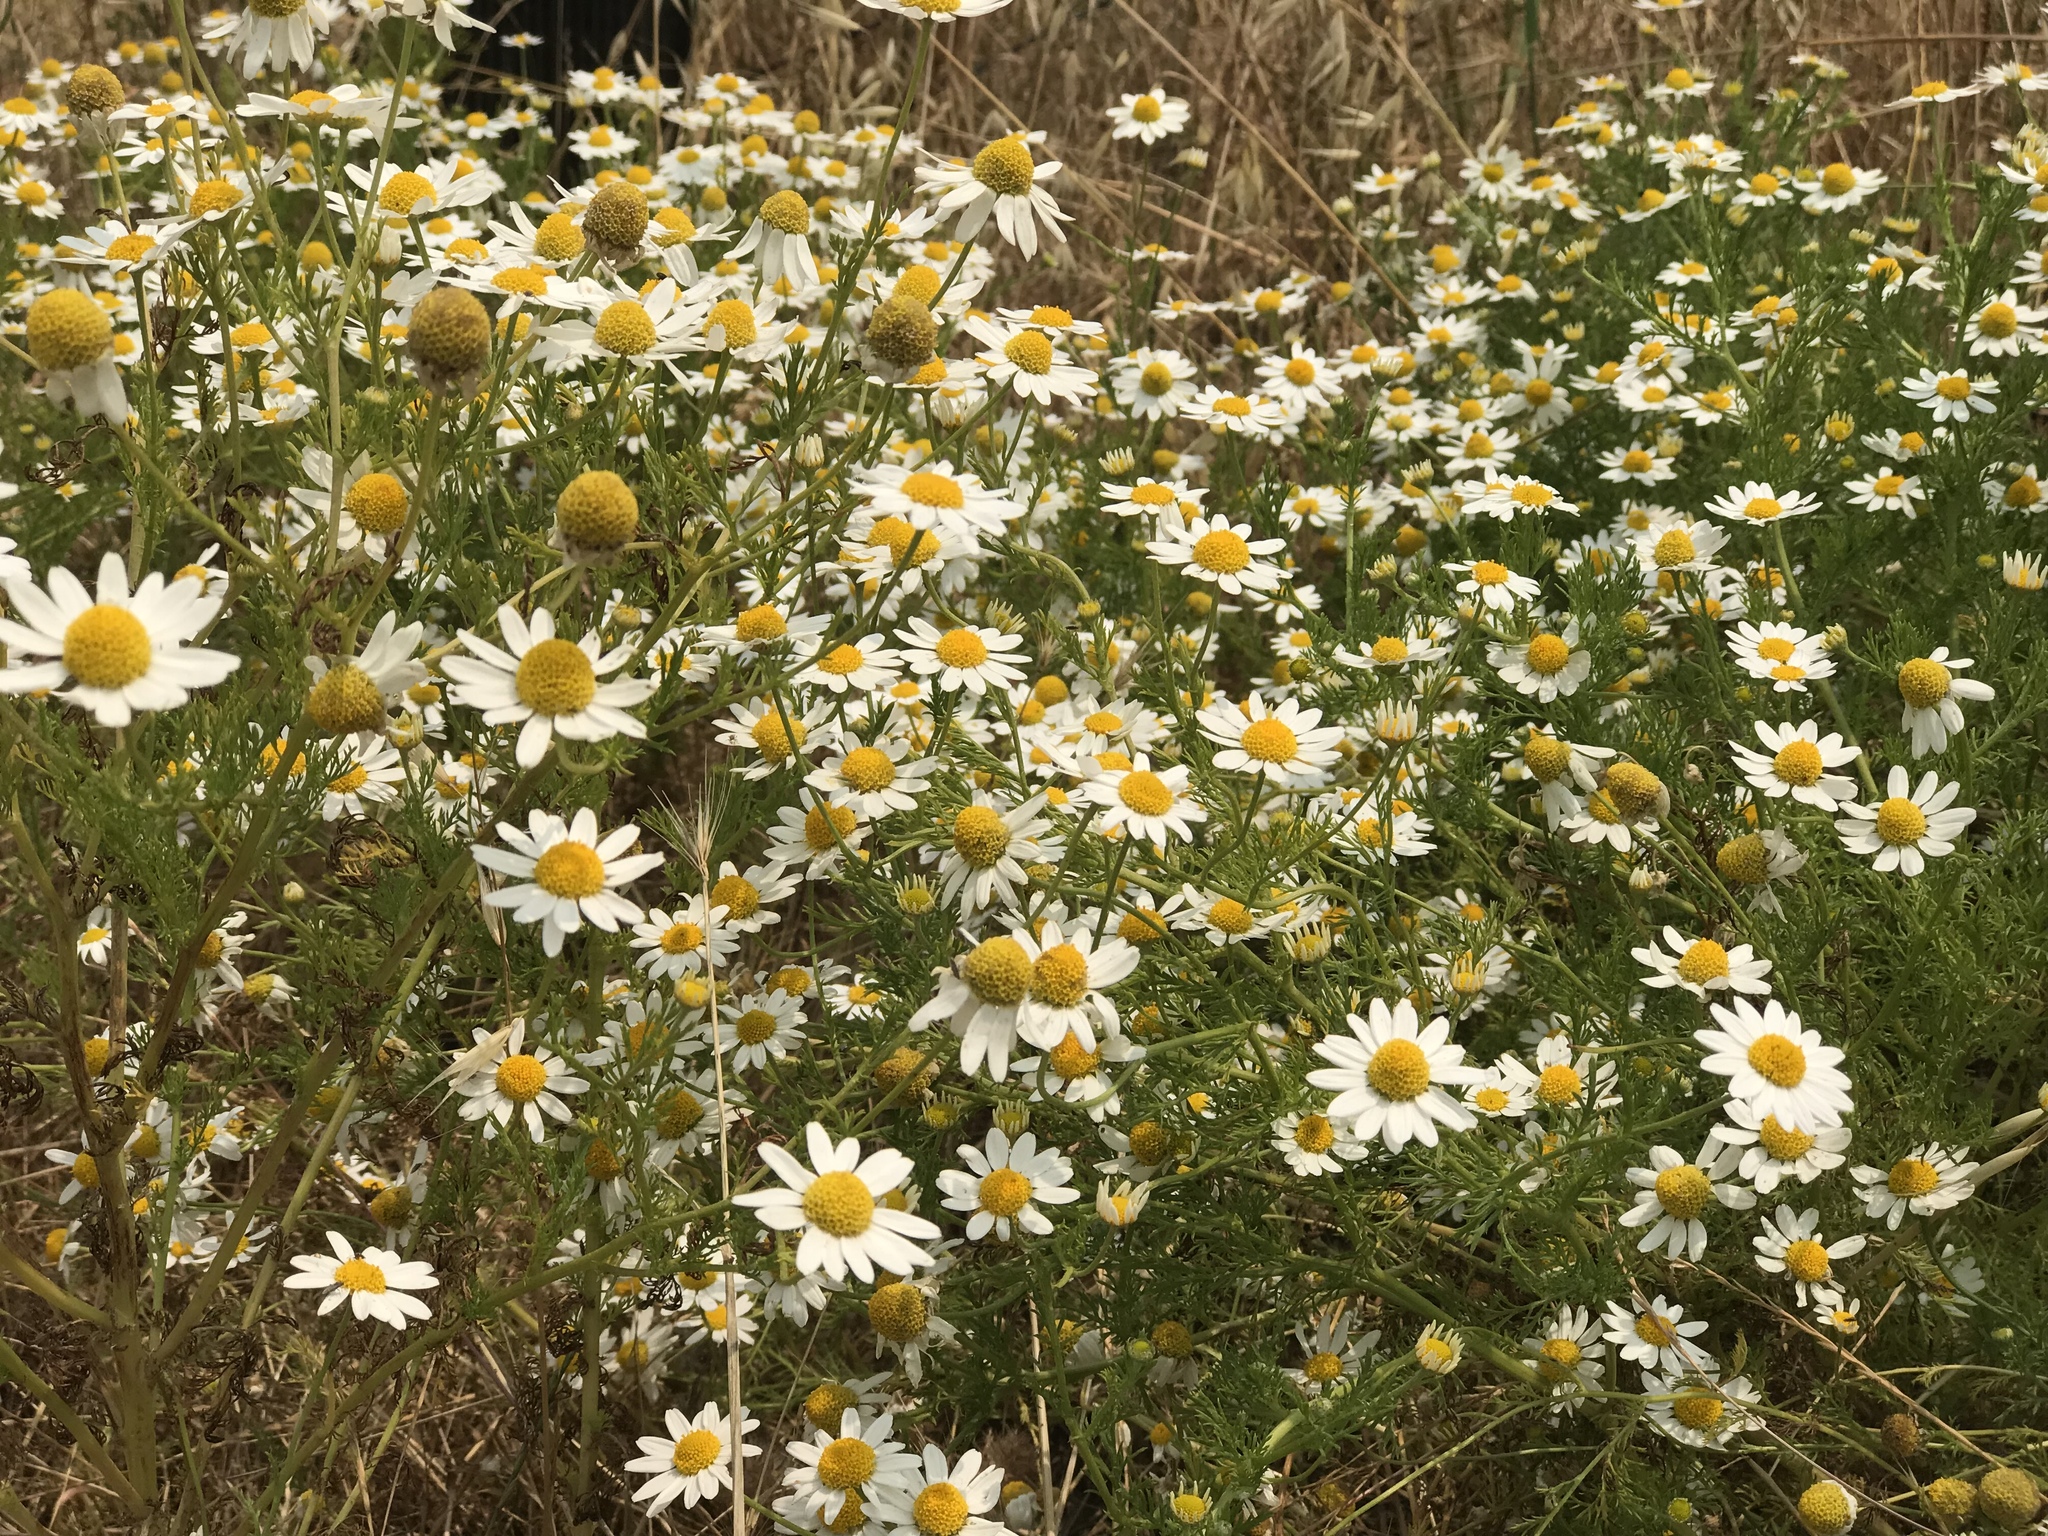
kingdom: Plantae
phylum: Tracheophyta
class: Magnoliopsida
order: Asterales
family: Asteraceae
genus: Anthemis
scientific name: Anthemis cotula
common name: Stinking chamomile
